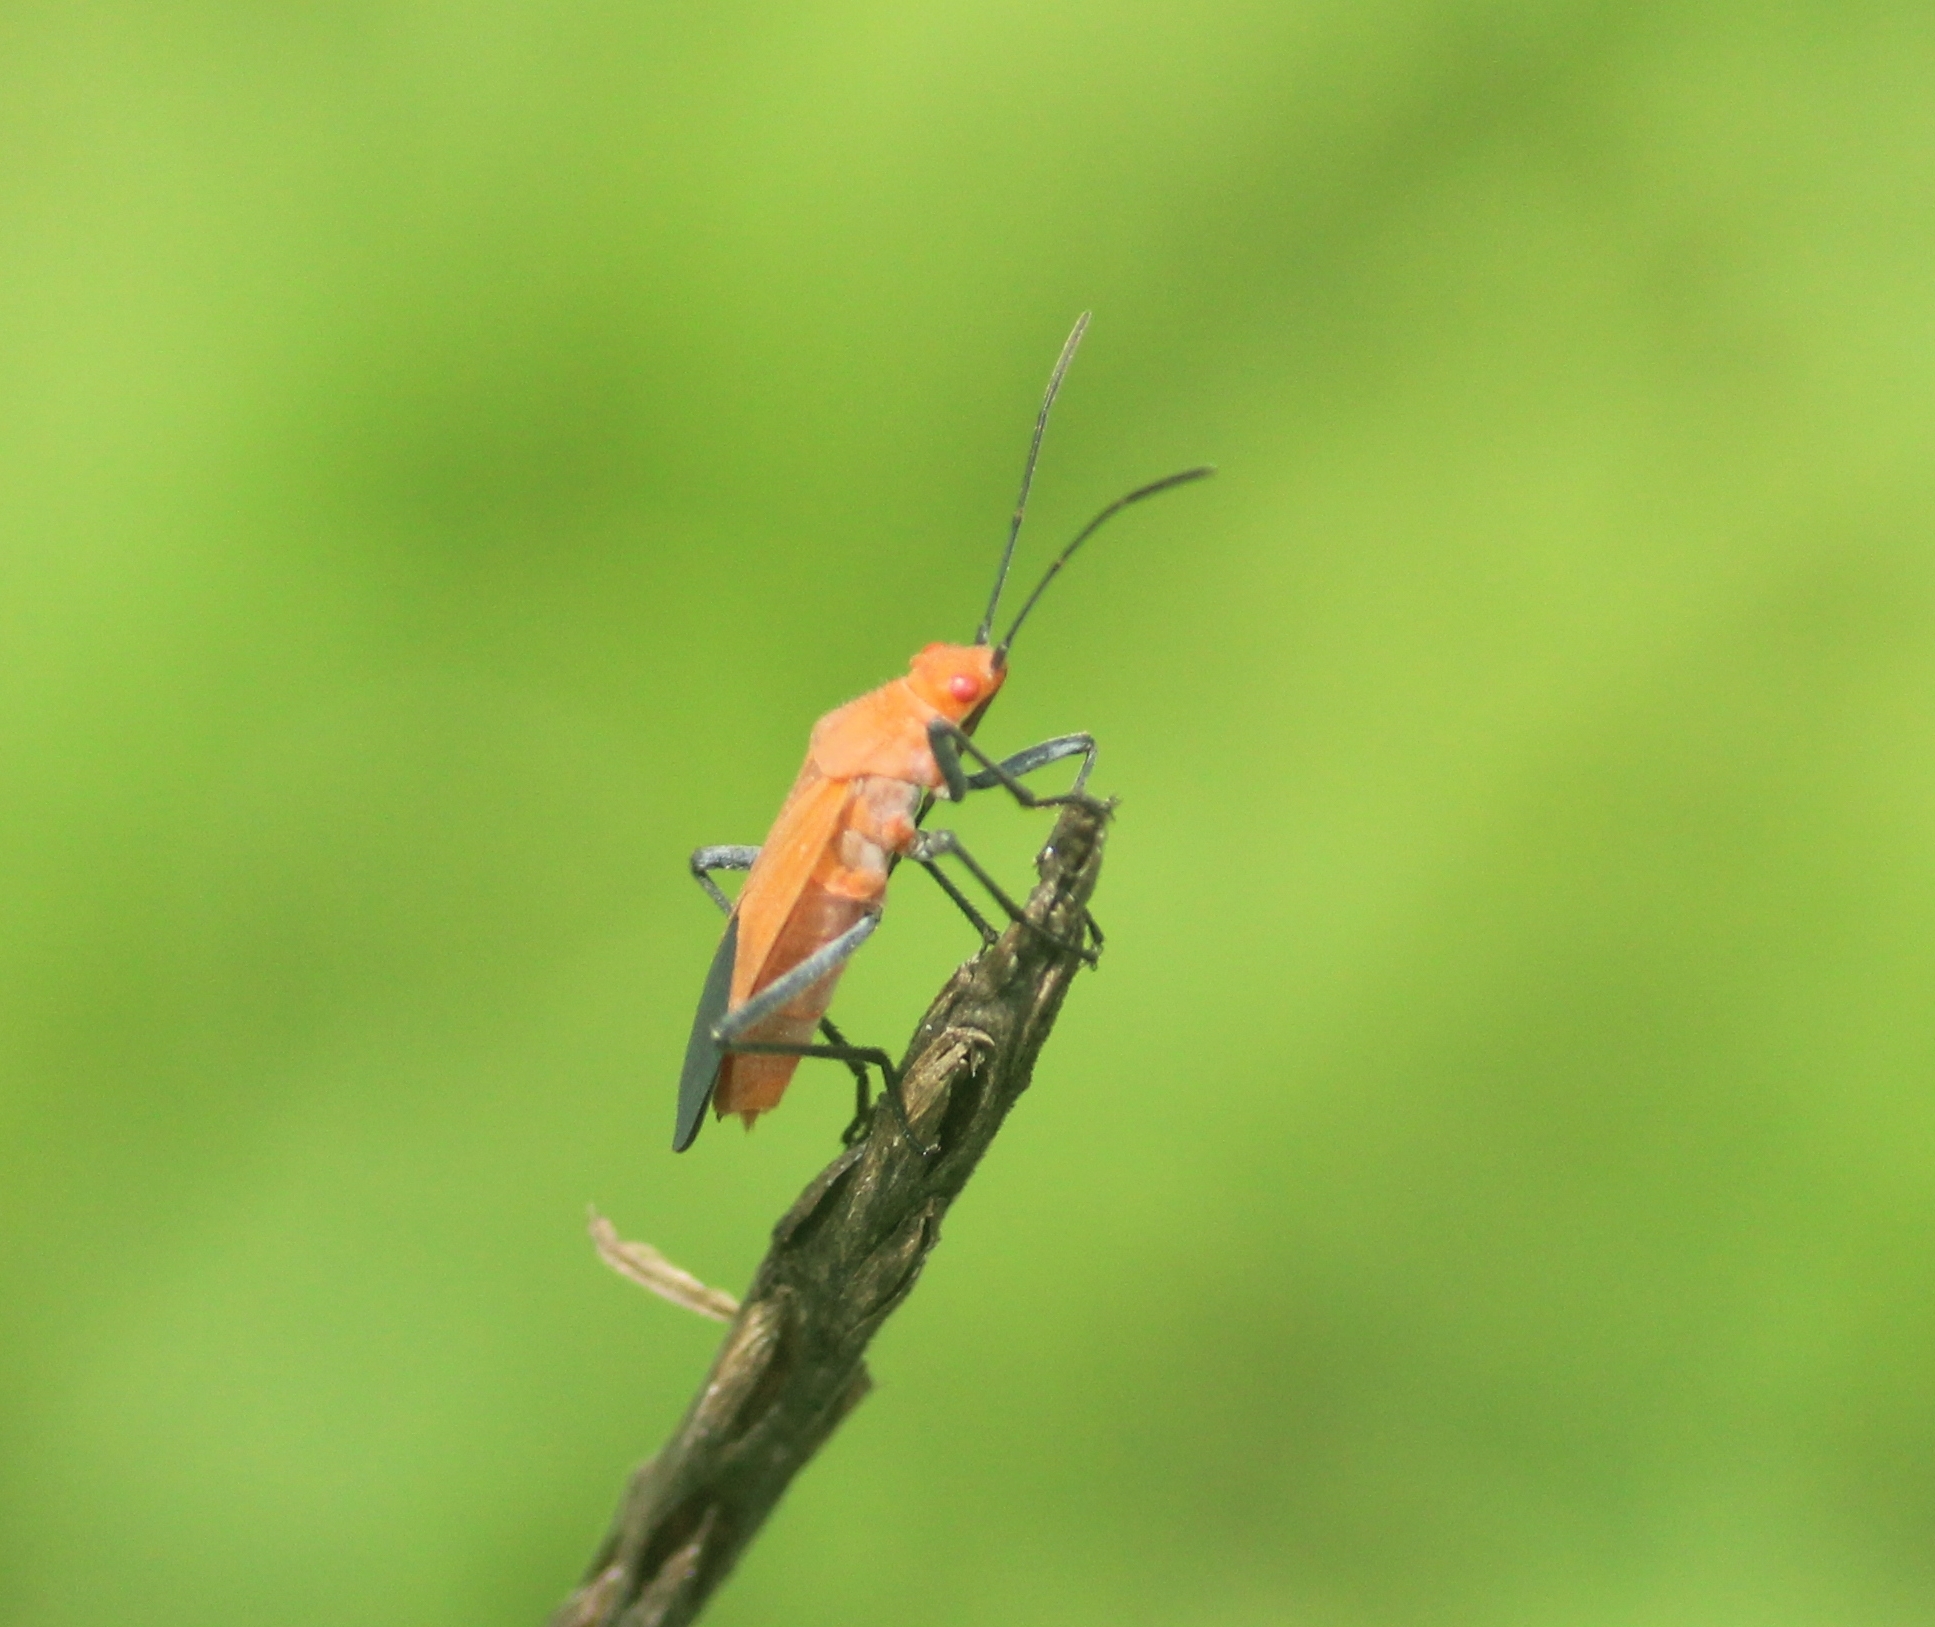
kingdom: Animalia
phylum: Arthropoda
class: Insecta
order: Hemiptera
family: Rhopalidae
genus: Leptocoris
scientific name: Leptocoris augur
